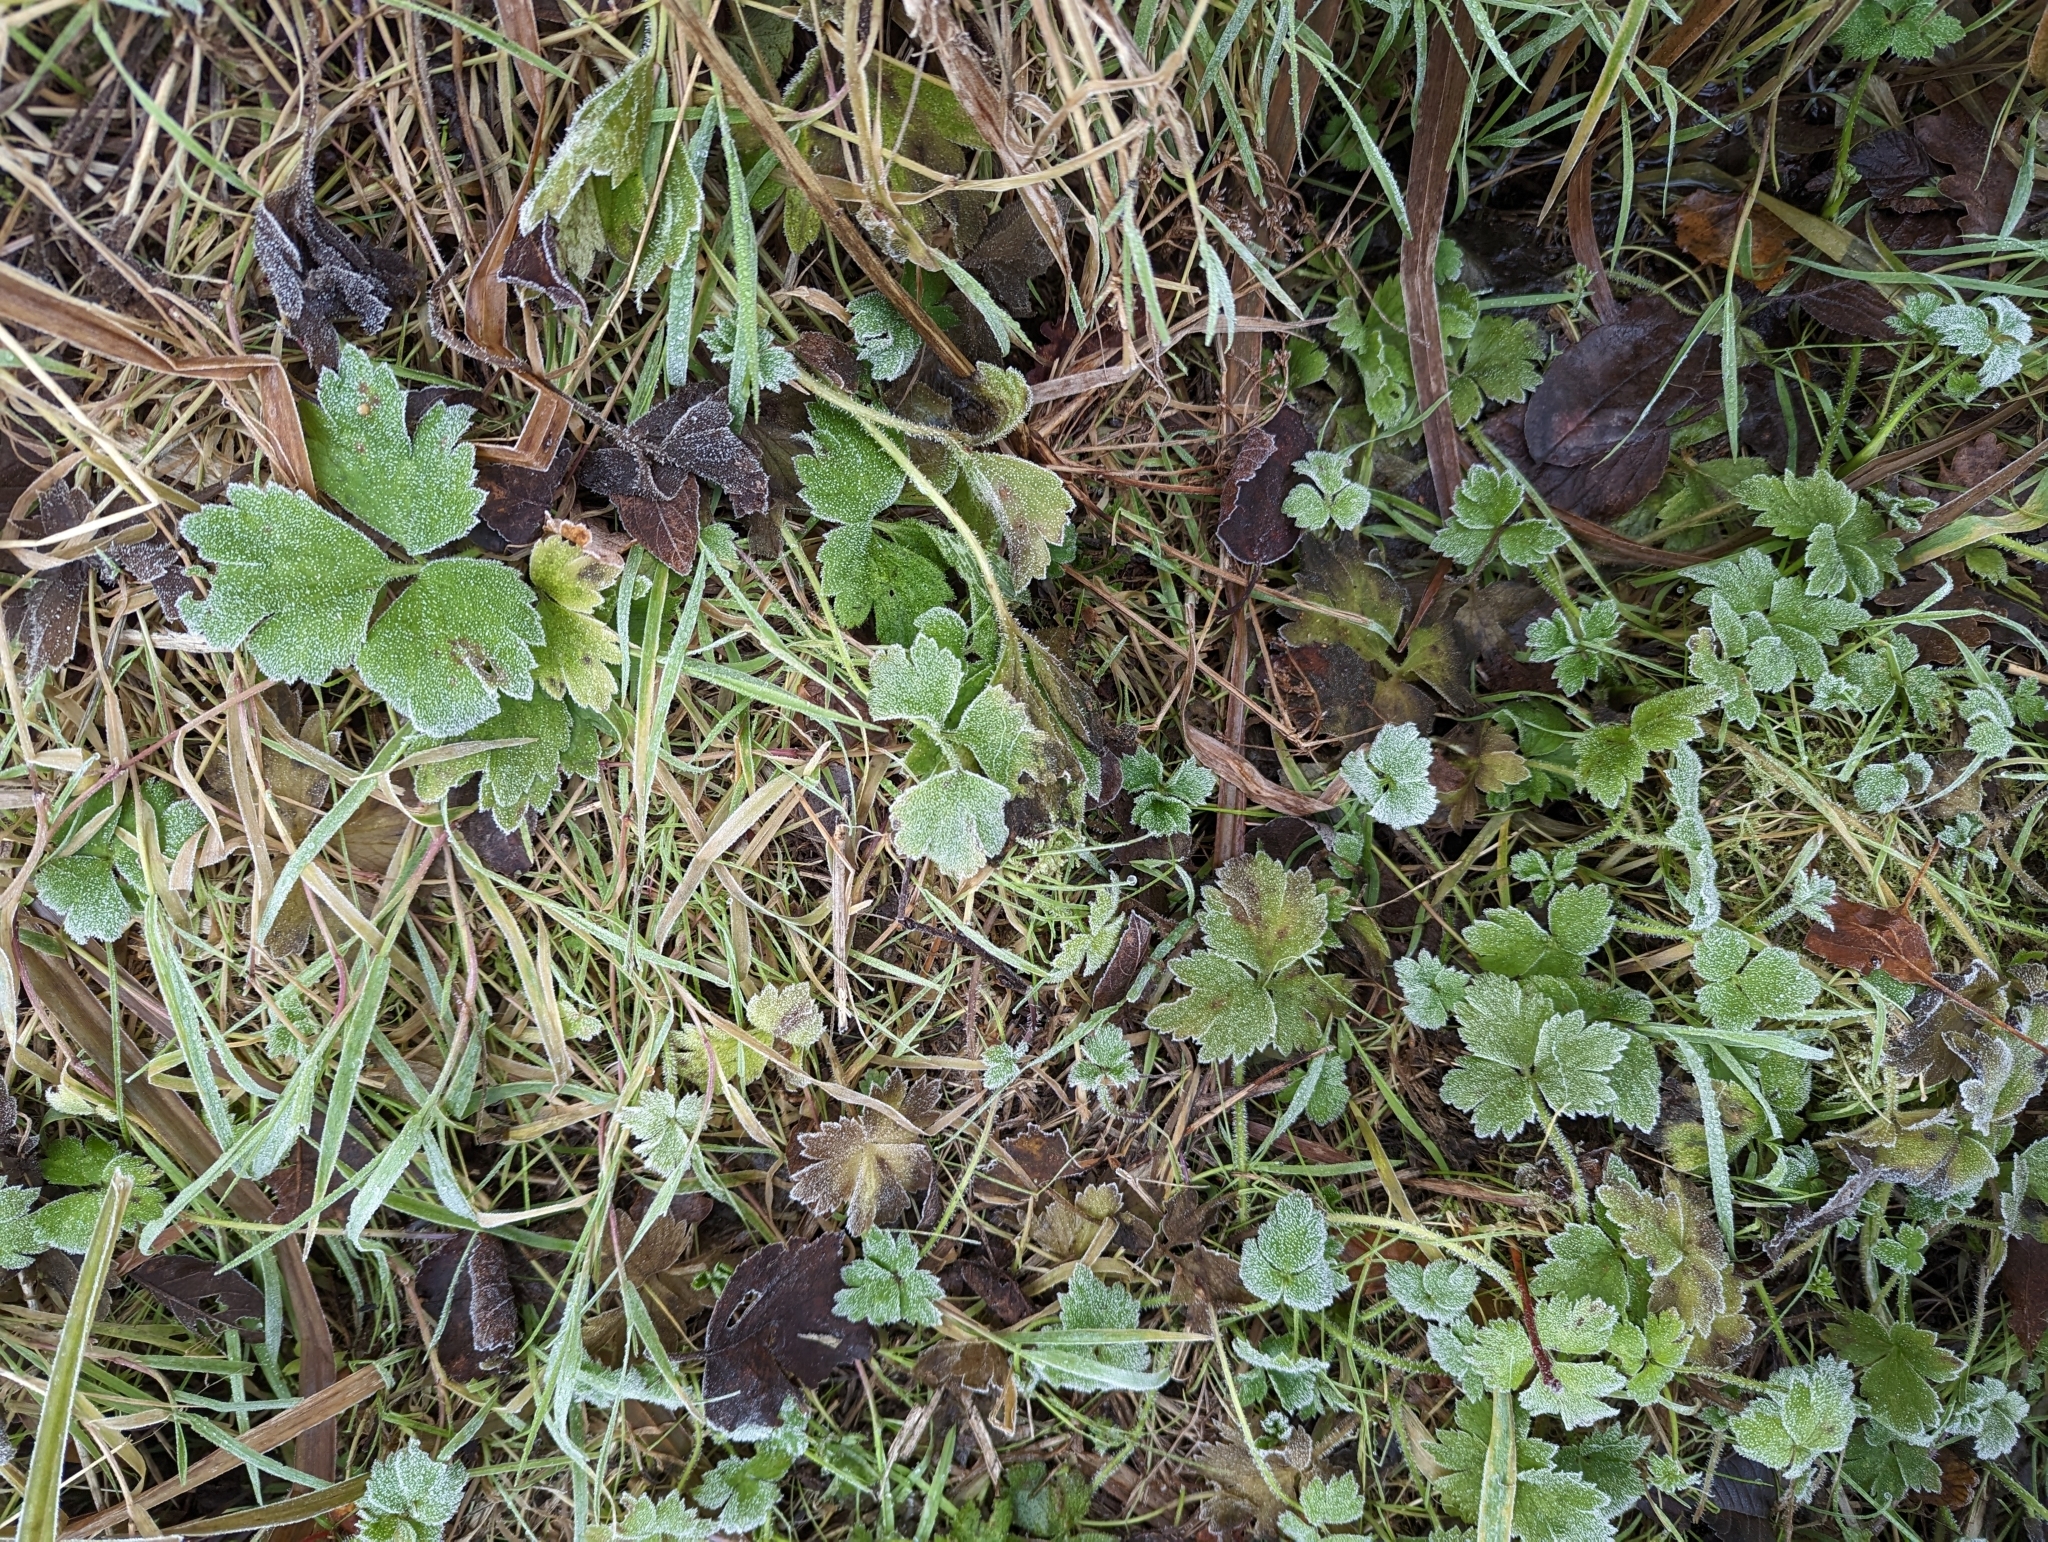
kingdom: Plantae
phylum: Tracheophyta
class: Magnoliopsida
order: Ranunculales
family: Ranunculaceae
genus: Ranunculus
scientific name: Ranunculus repens
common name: Creeping buttercup
